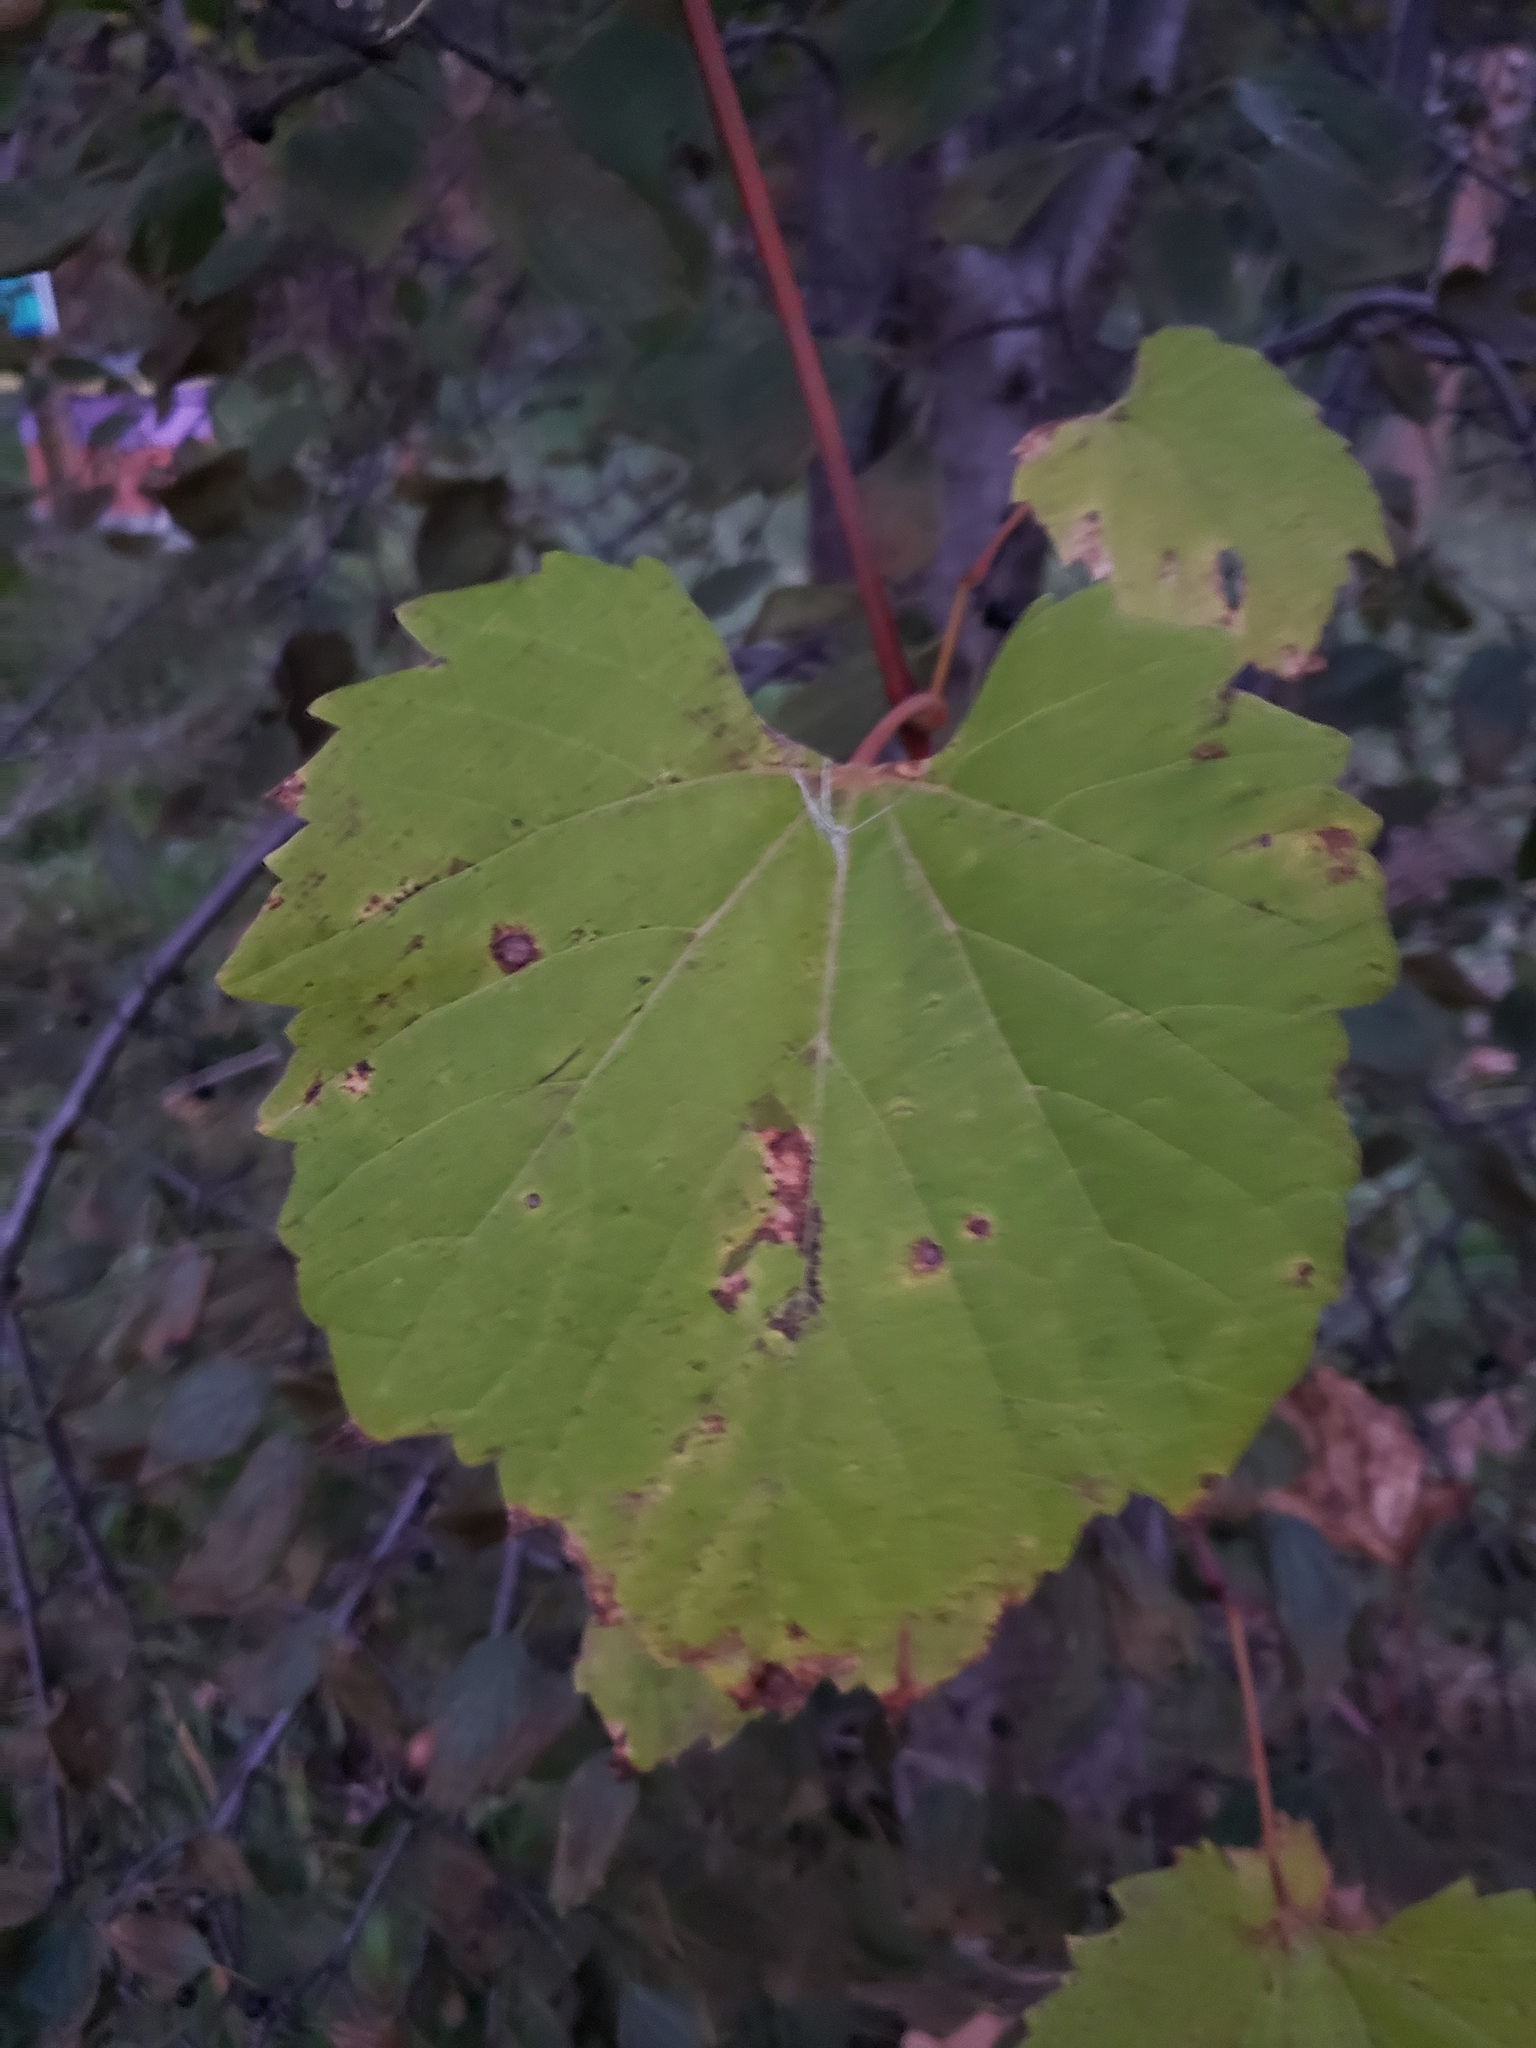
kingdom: Plantae
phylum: Tracheophyta
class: Magnoliopsida
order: Vitales
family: Vitaceae
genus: Vitis
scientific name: Vitis riparia
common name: Frost grape
